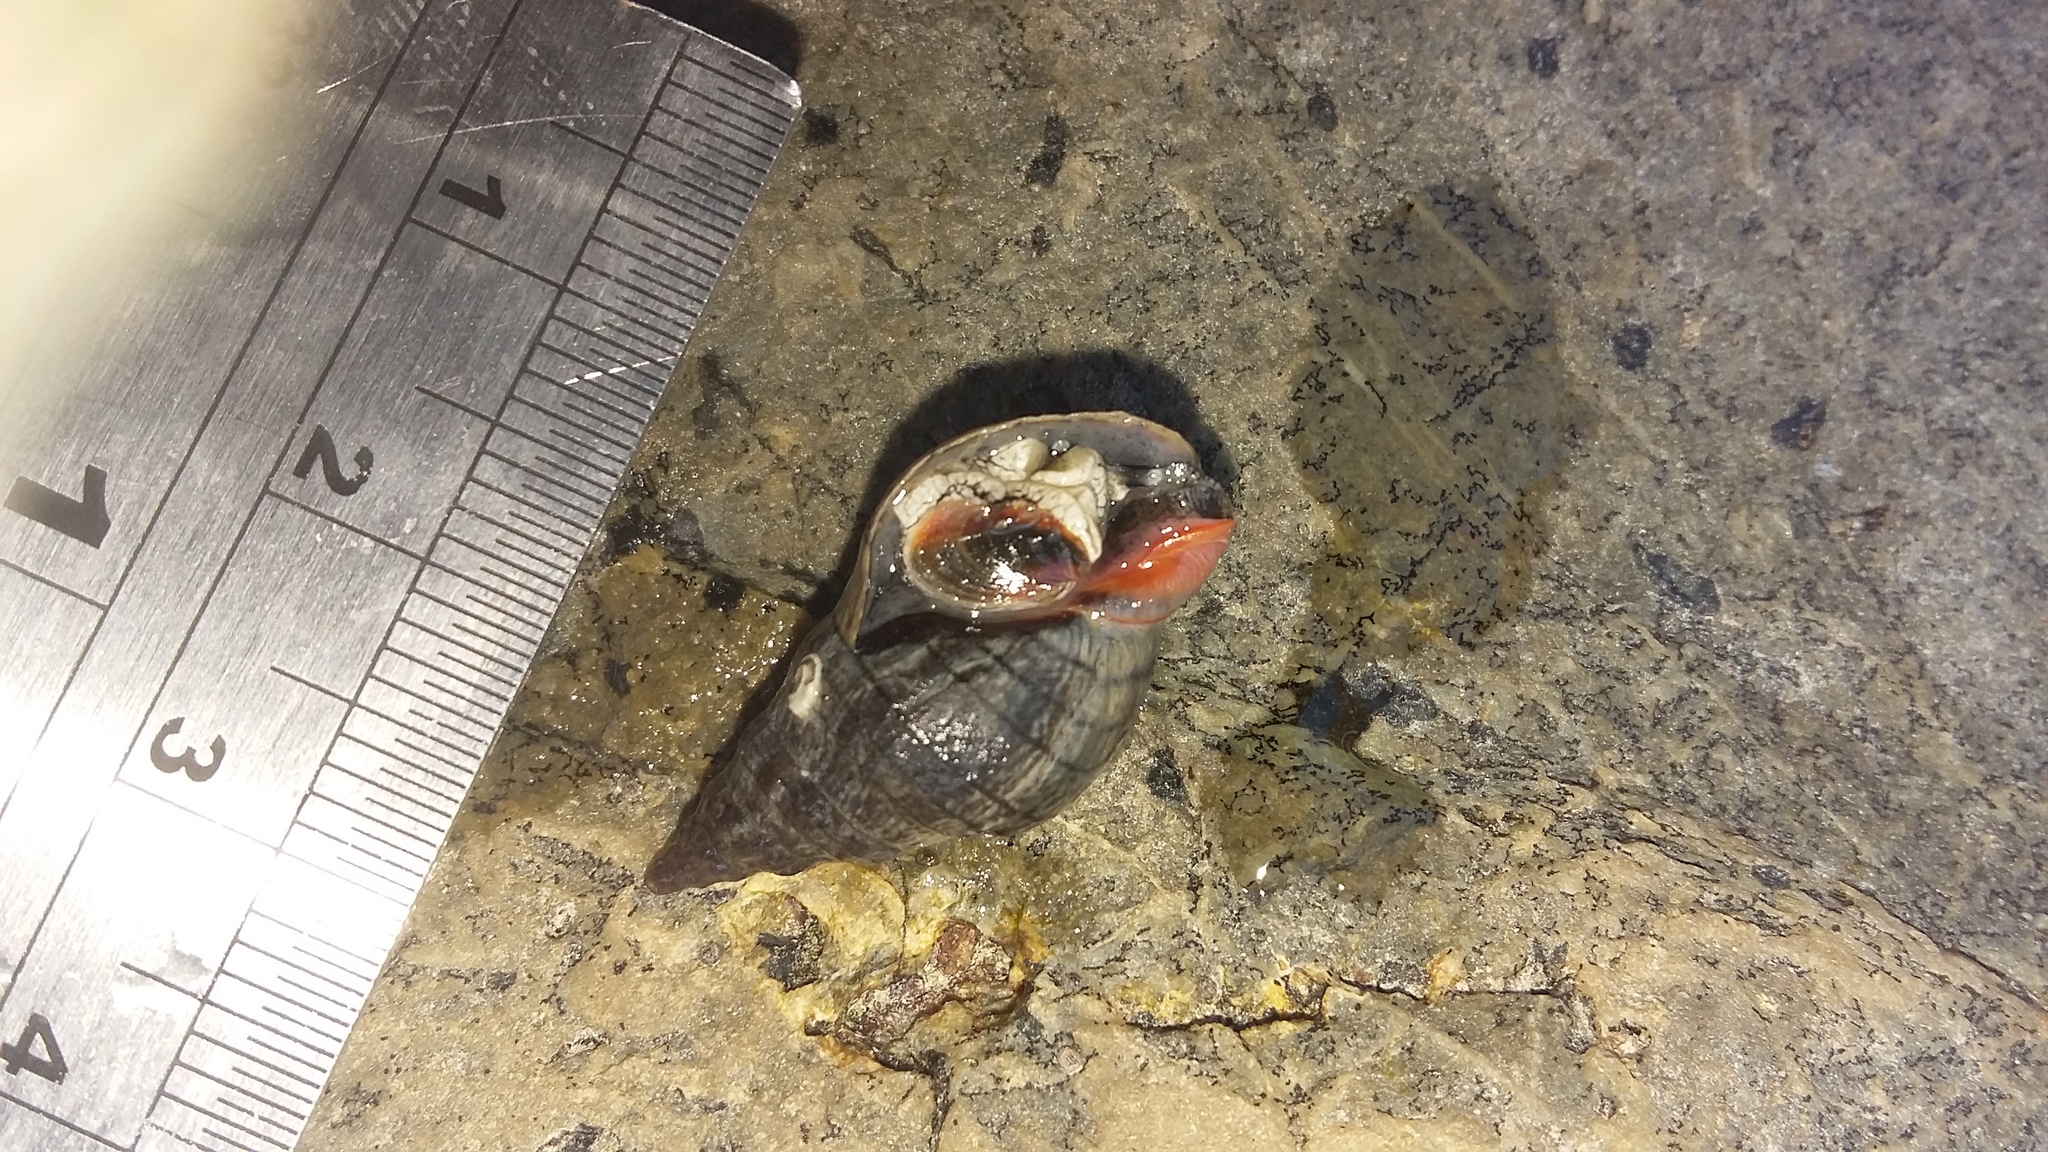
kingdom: Animalia
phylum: Mollusca
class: Gastropoda
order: Neogastropoda
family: Cominellidae
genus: Cominella
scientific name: Cominella virgata
